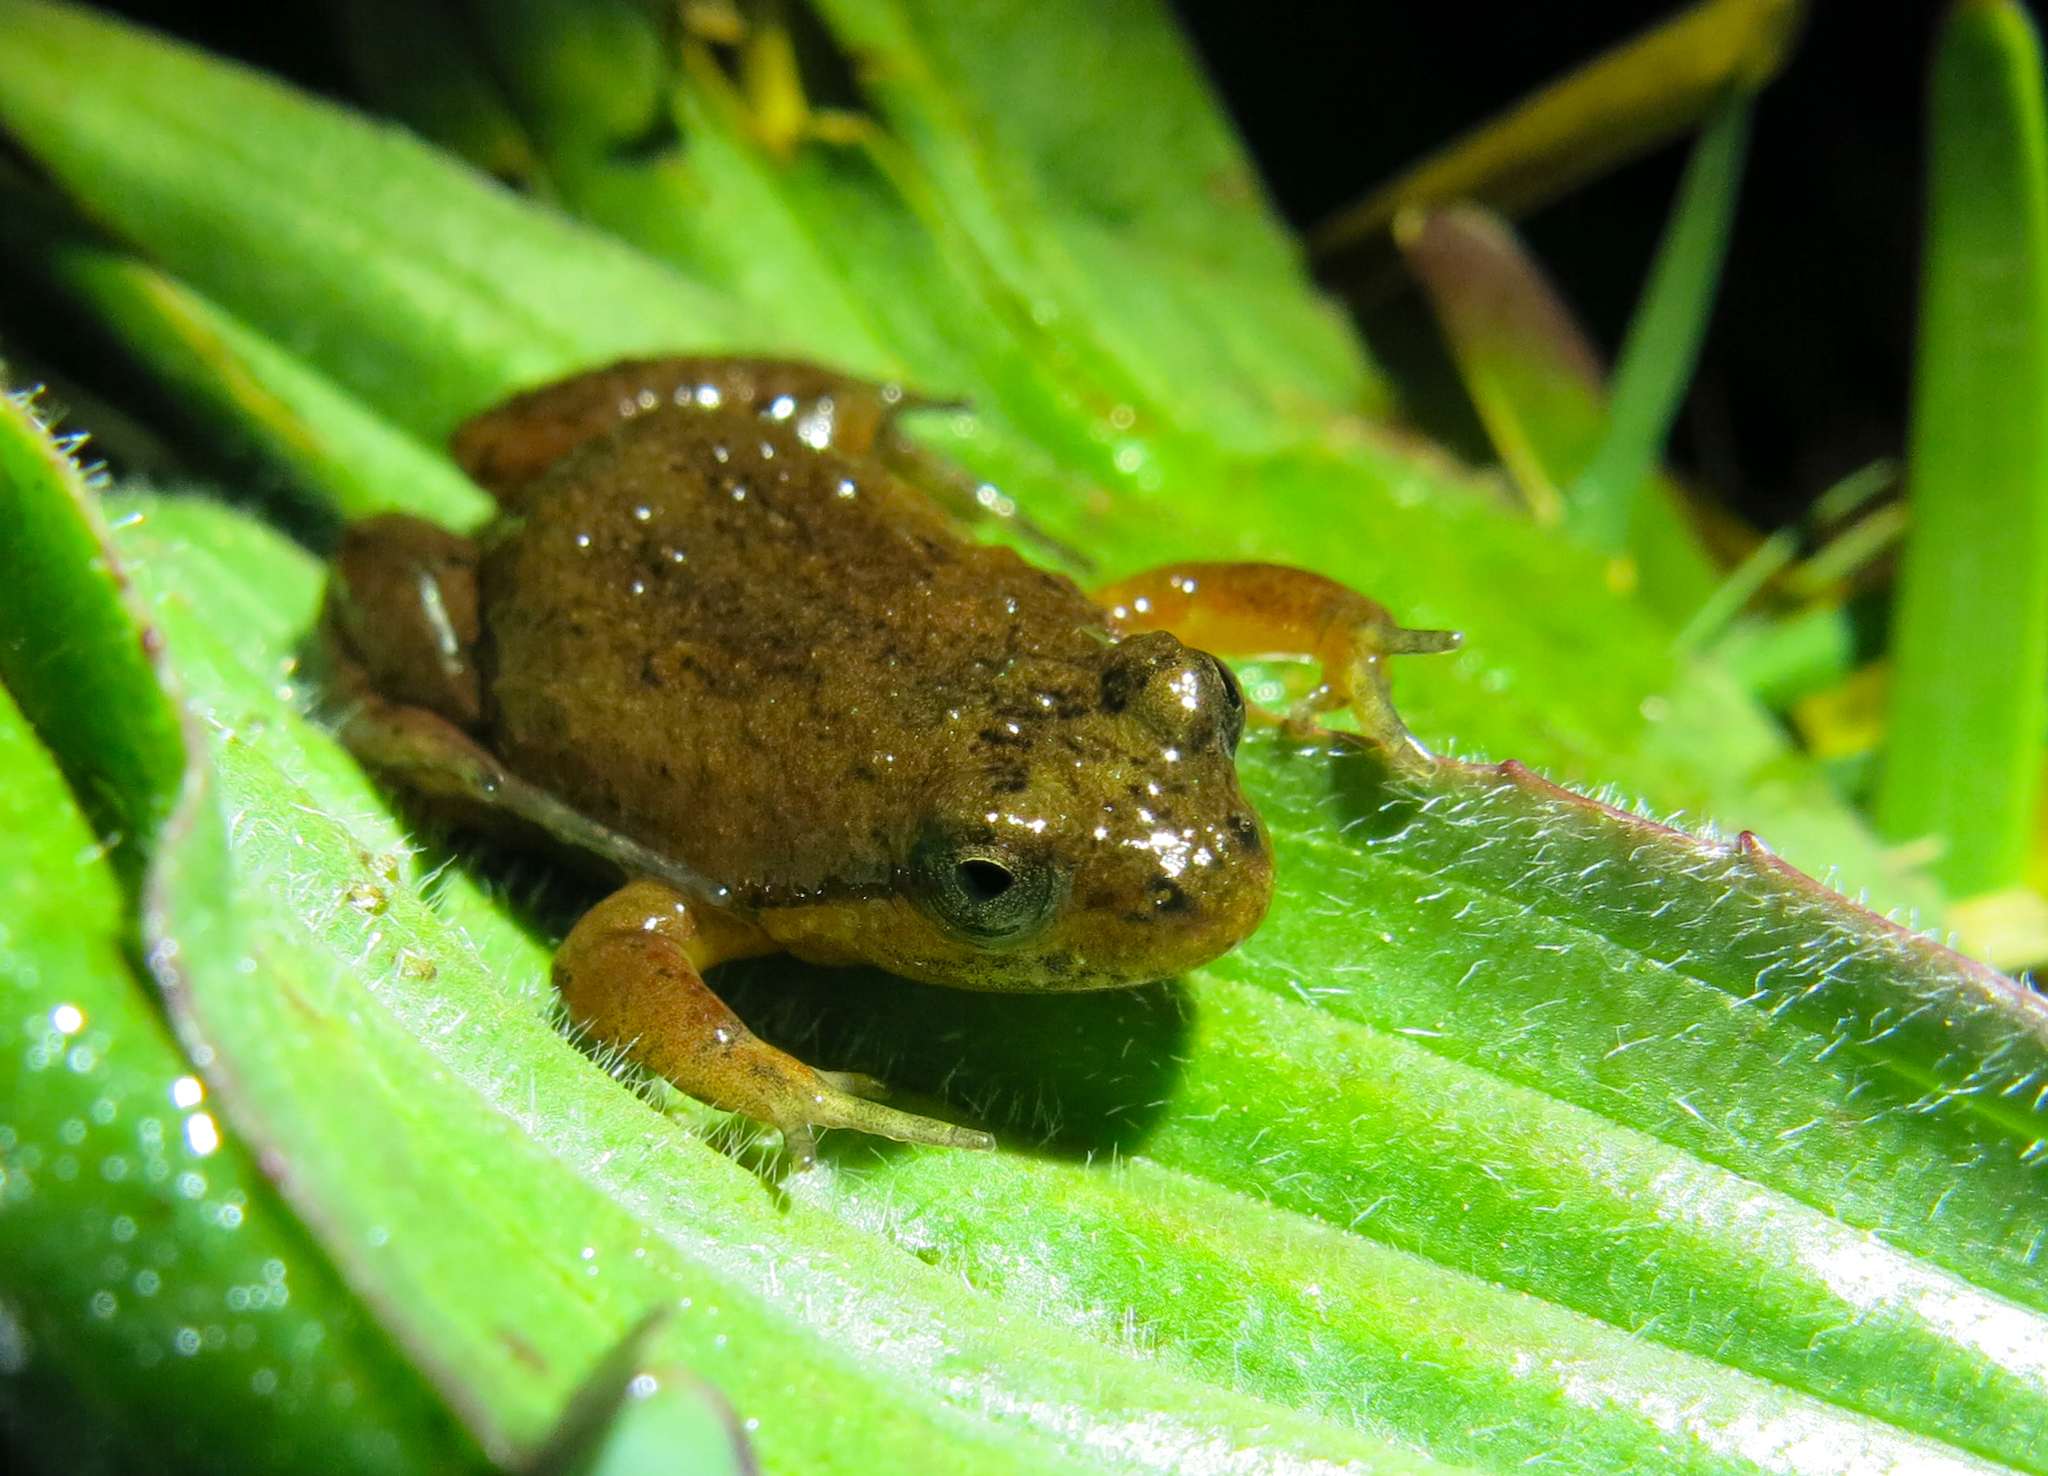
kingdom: Animalia
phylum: Chordata
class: Amphibia
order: Anura
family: Pyxicephalidae
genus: Microbatrachella
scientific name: Microbatrachella capensis
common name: Cape flats frog
